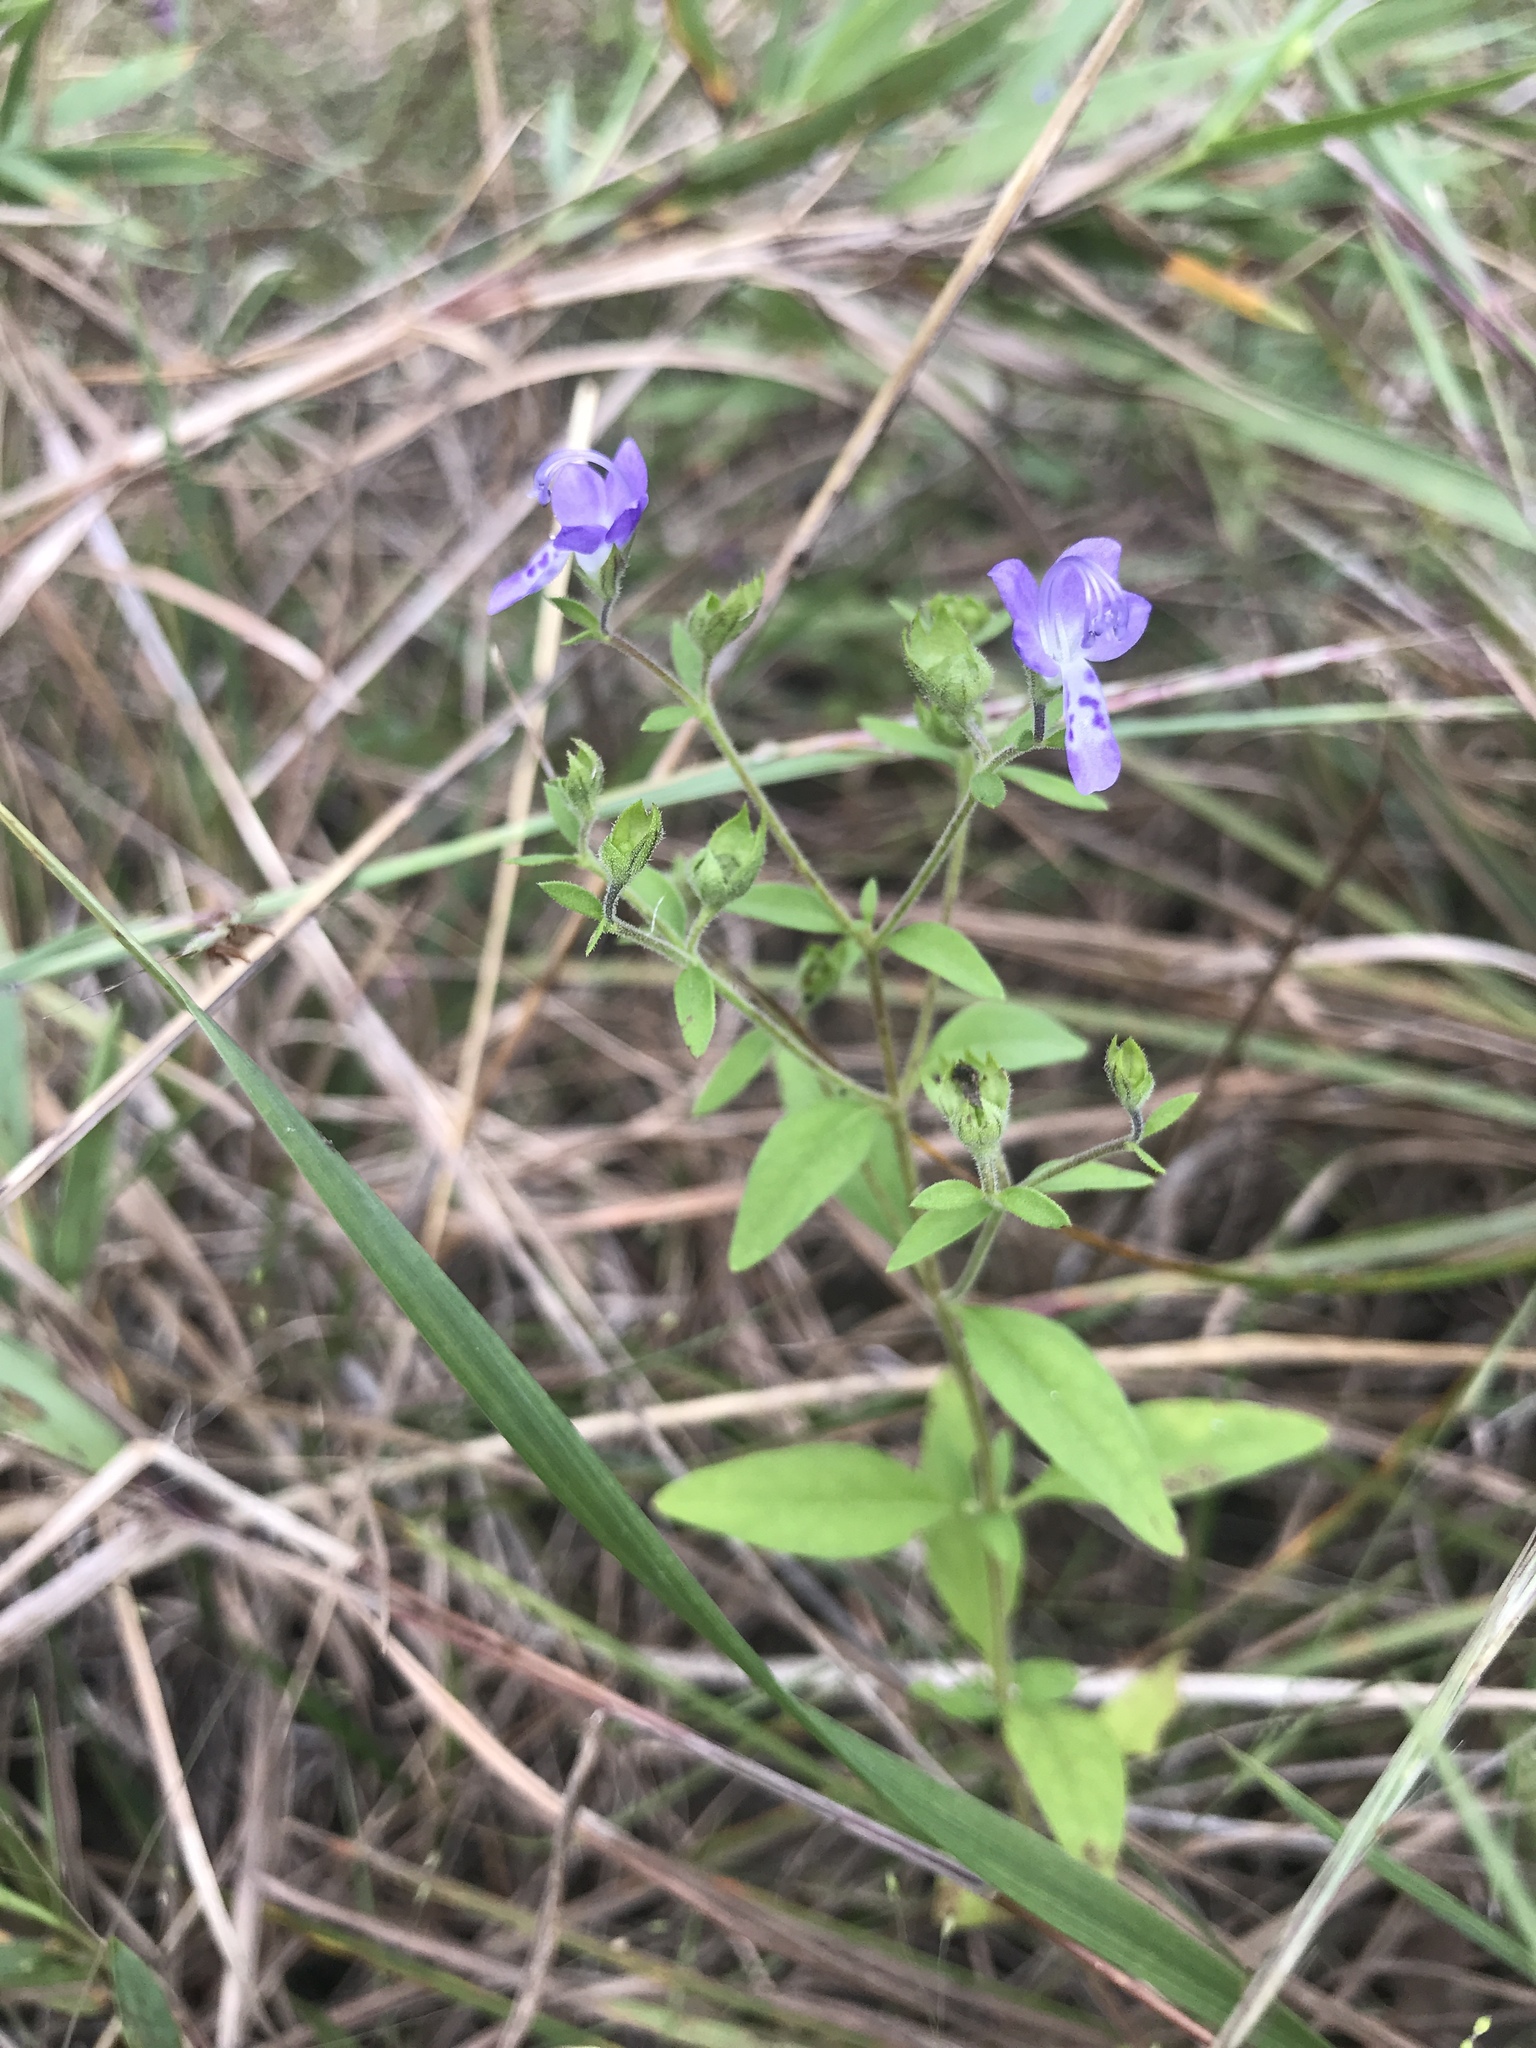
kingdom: Plantae
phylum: Tracheophyta
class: Magnoliopsida
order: Lamiales
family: Lamiaceae
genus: Trichostema
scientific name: Trichostema dichotomum
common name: Bastard pennyroyal
